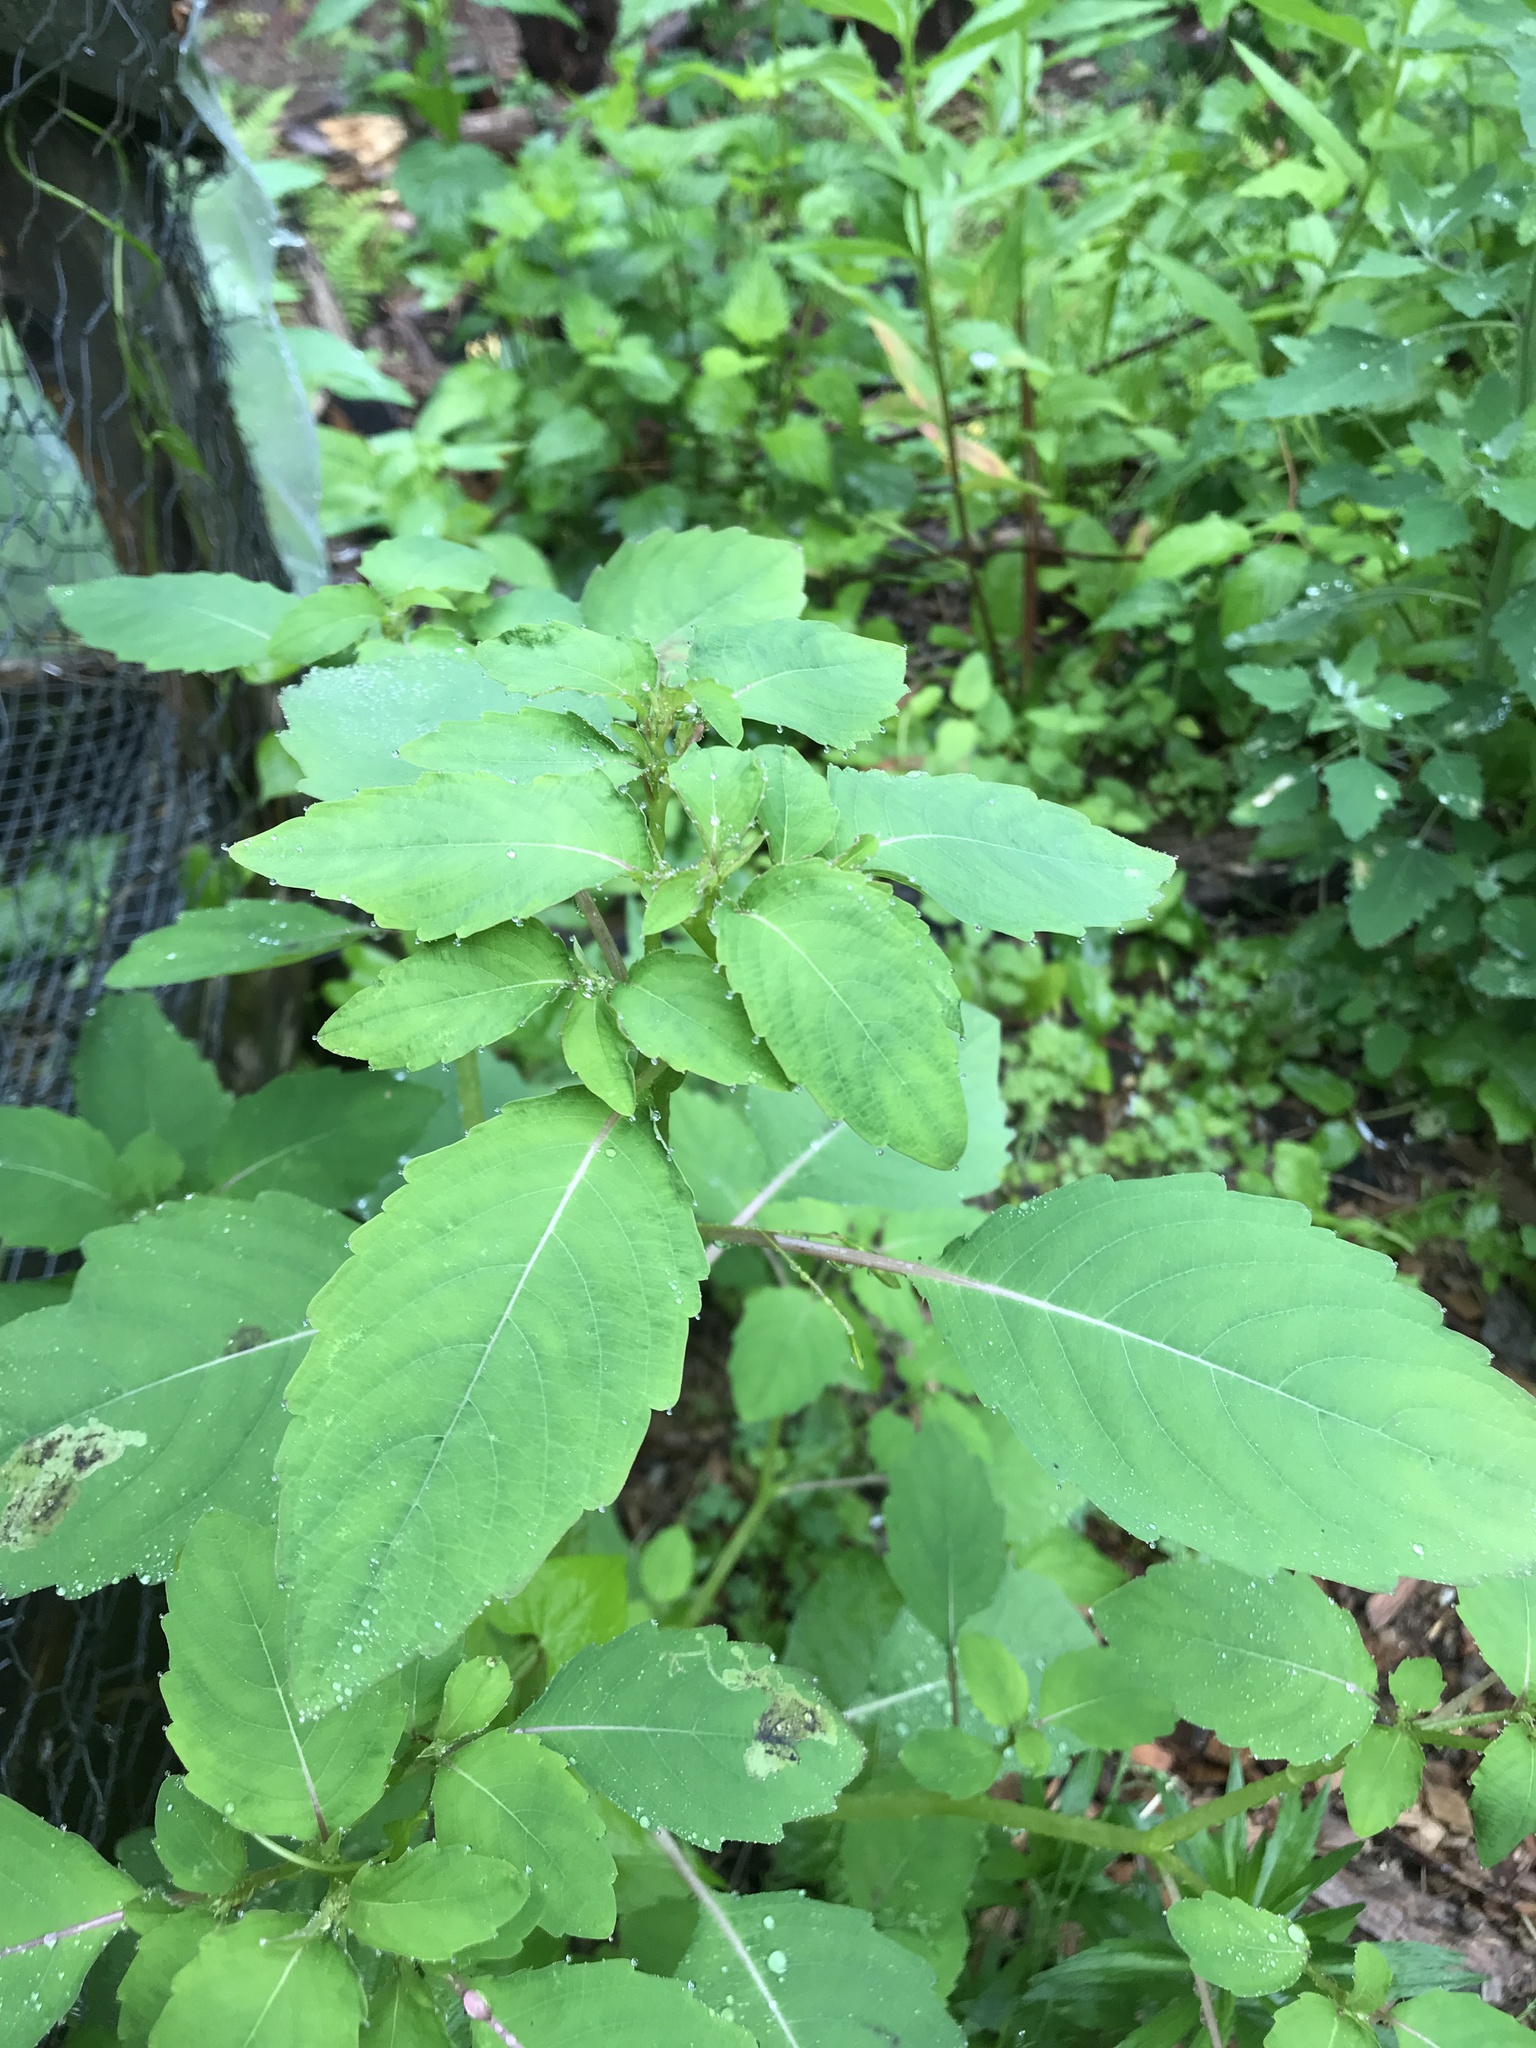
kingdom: Plantae
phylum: Tracheophyta
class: Magnoliopsida
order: Ericales
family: Balsaminaceae
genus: Impatiens
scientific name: Impatiens capensis
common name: Orange balsam
